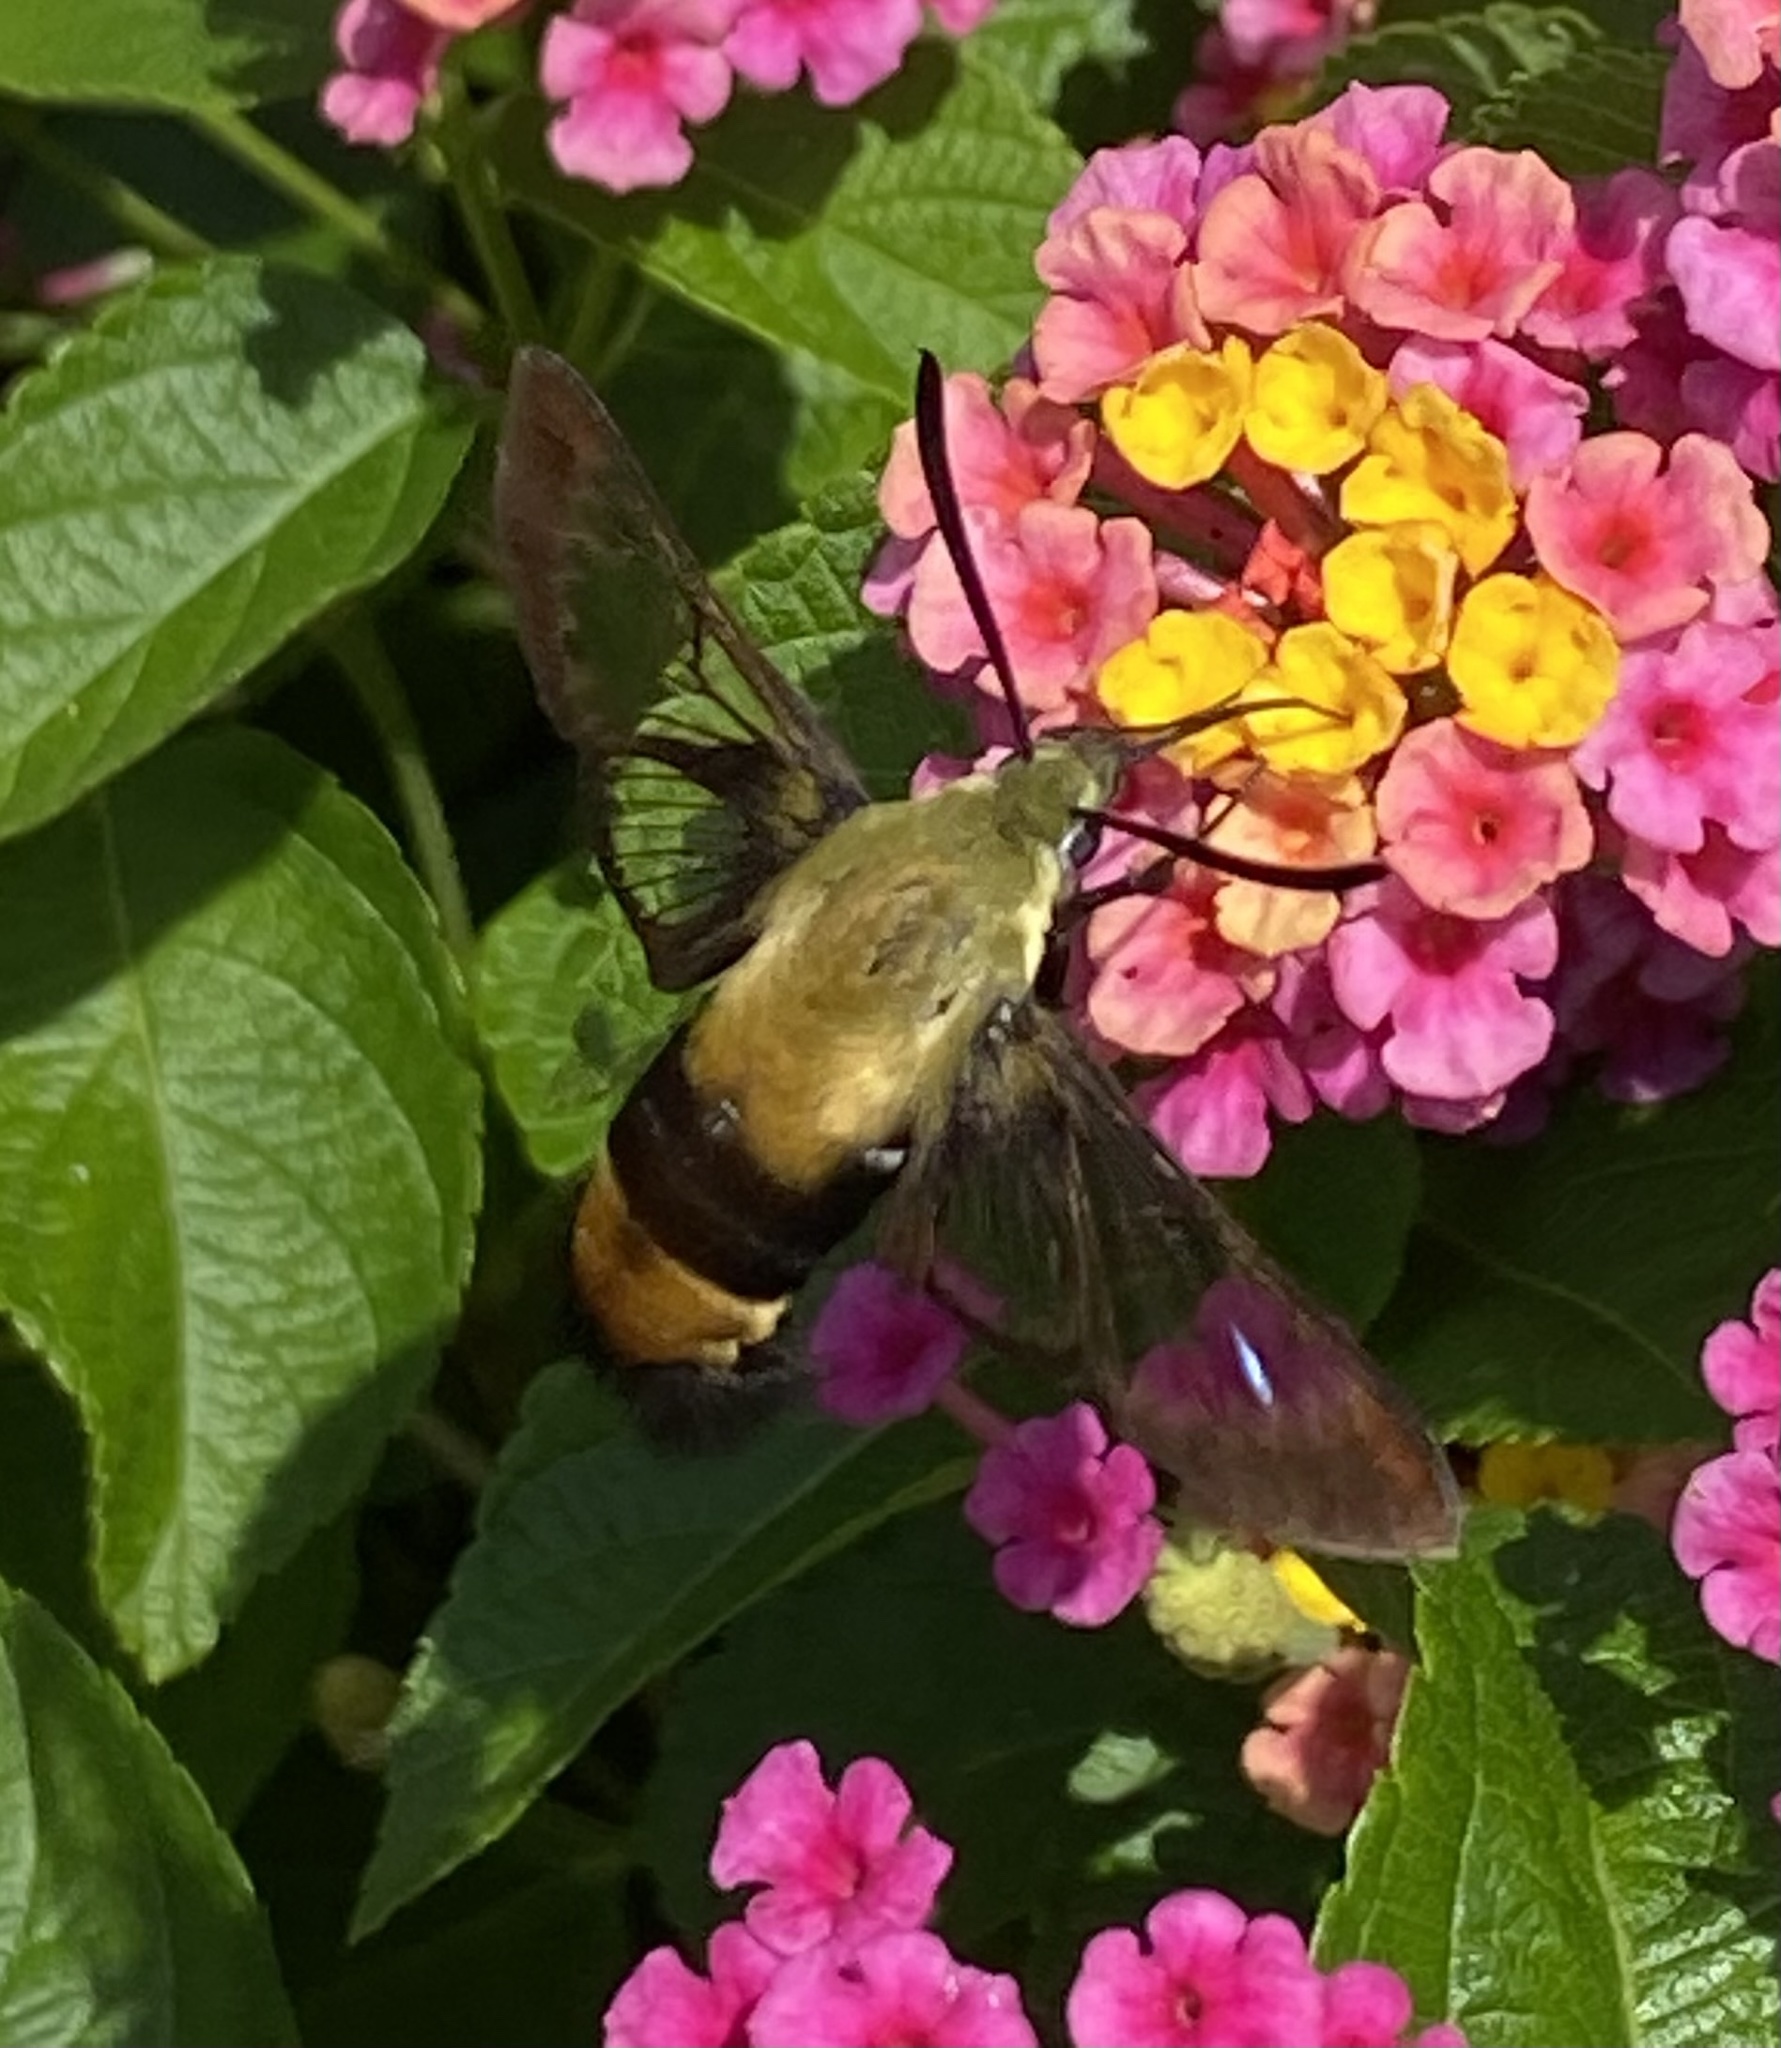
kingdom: Animalia
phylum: Arthropoda
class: Insecta
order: Lepidoptera
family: Sphingidae
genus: Hemaris
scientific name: Hemaris diffinis
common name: Bumblebee moth
